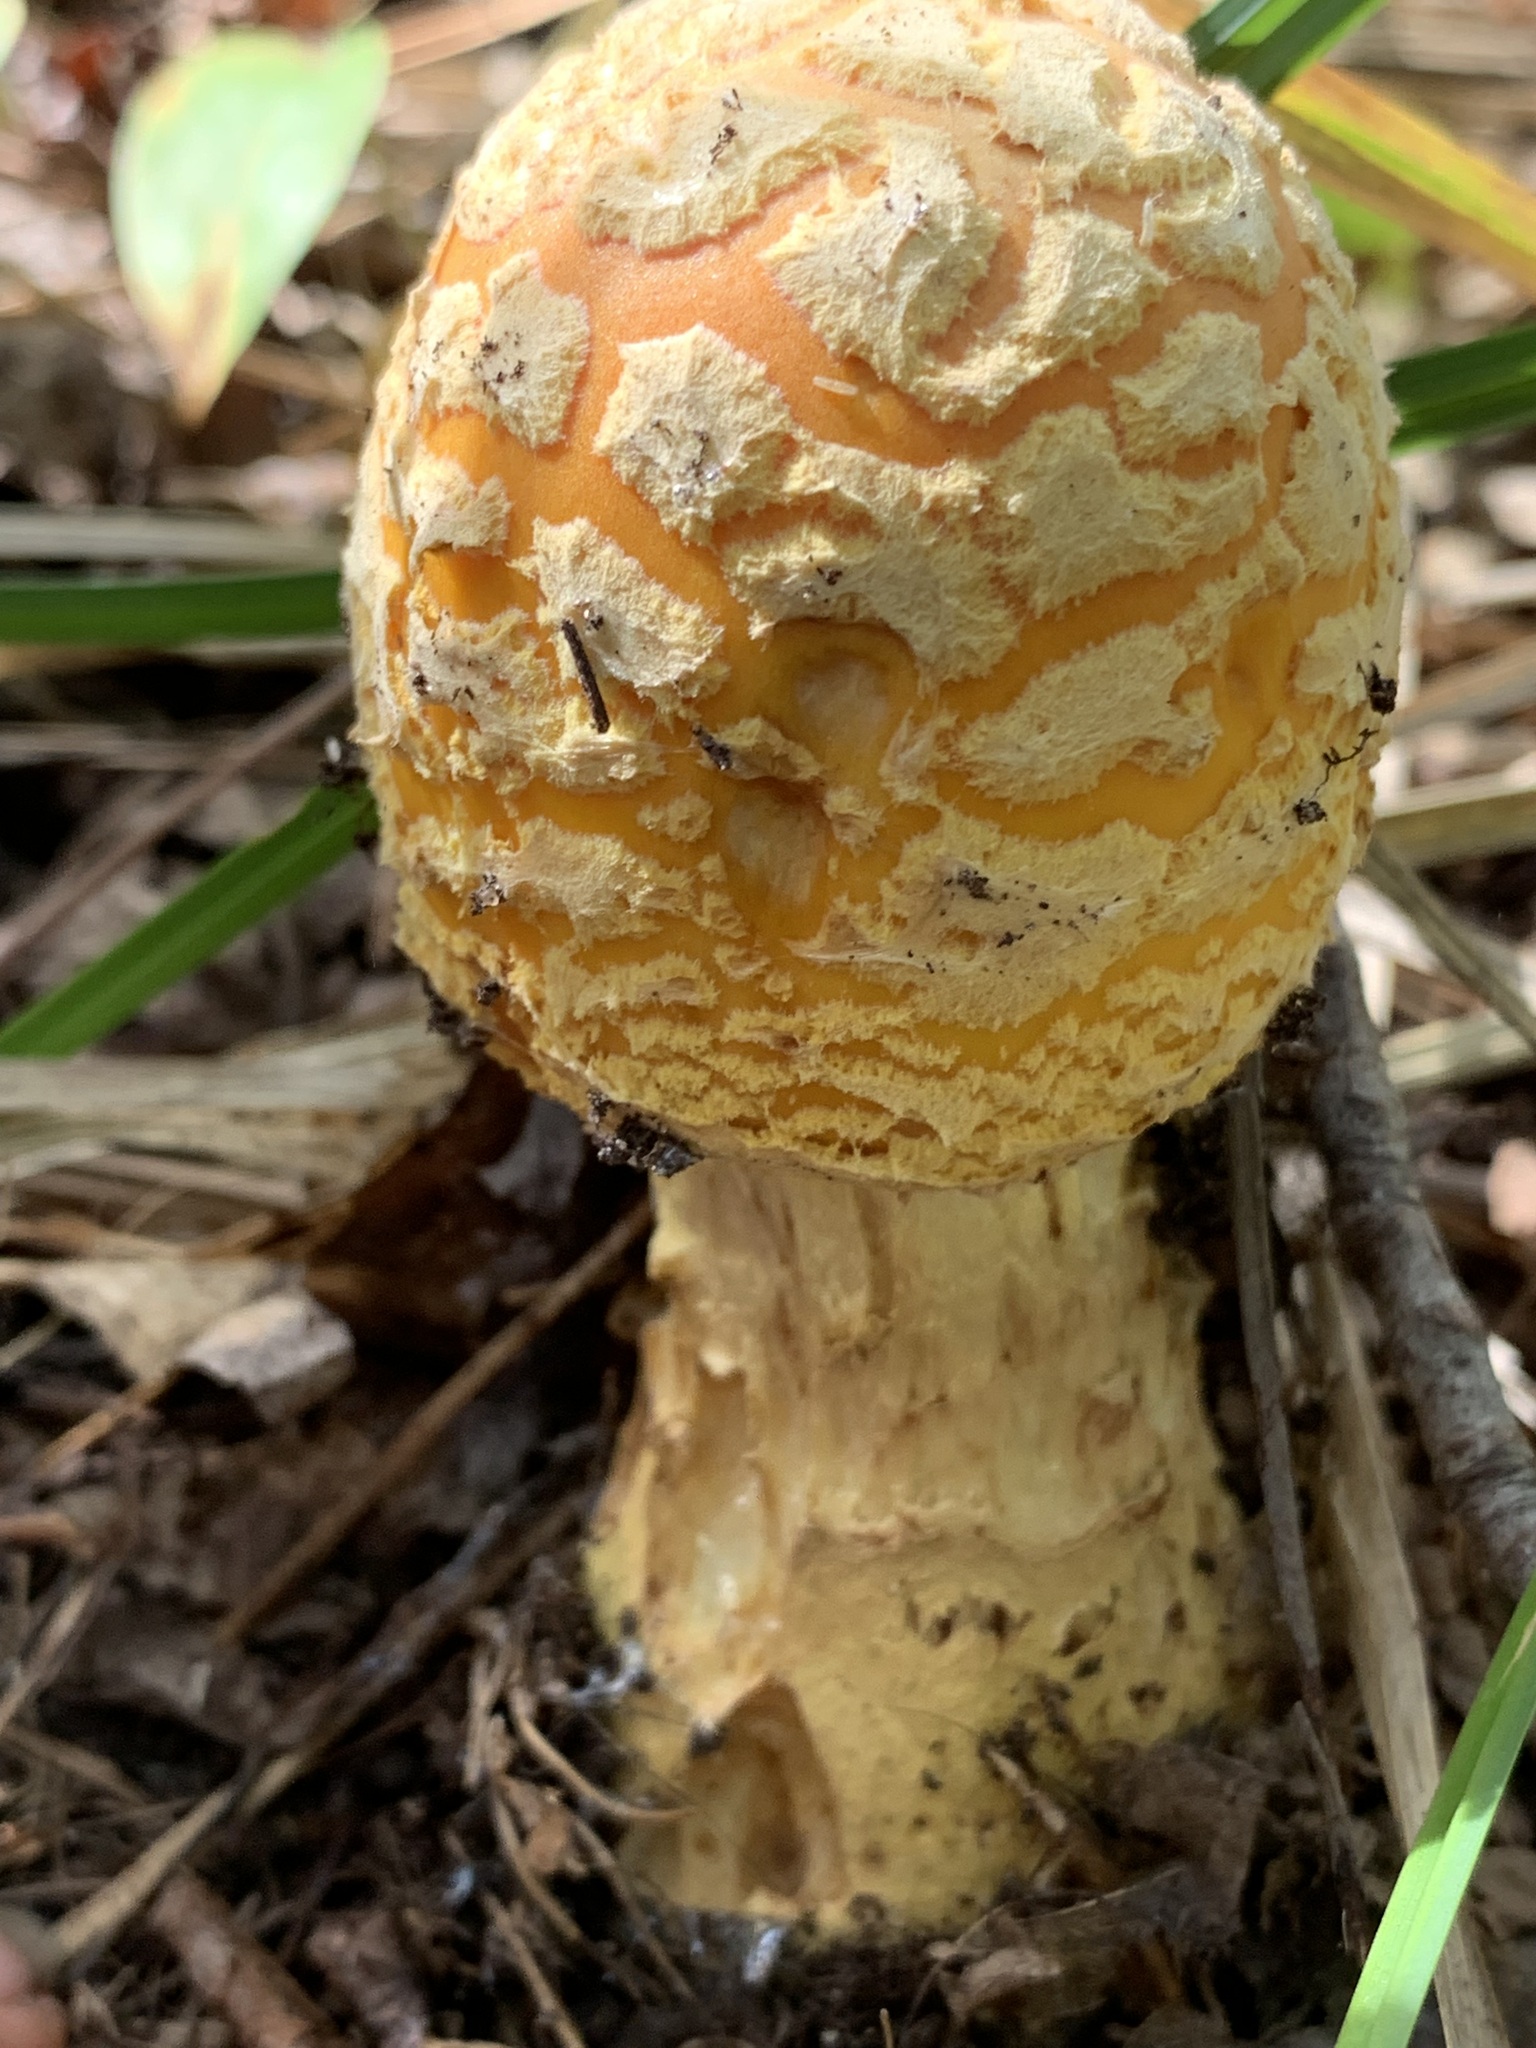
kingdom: Fungi
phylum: Basidiomycota
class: Agaricomycetes
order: Agaricales
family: Amanitaceae
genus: Amanita
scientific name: Amanita muscaria
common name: Fly agaric
